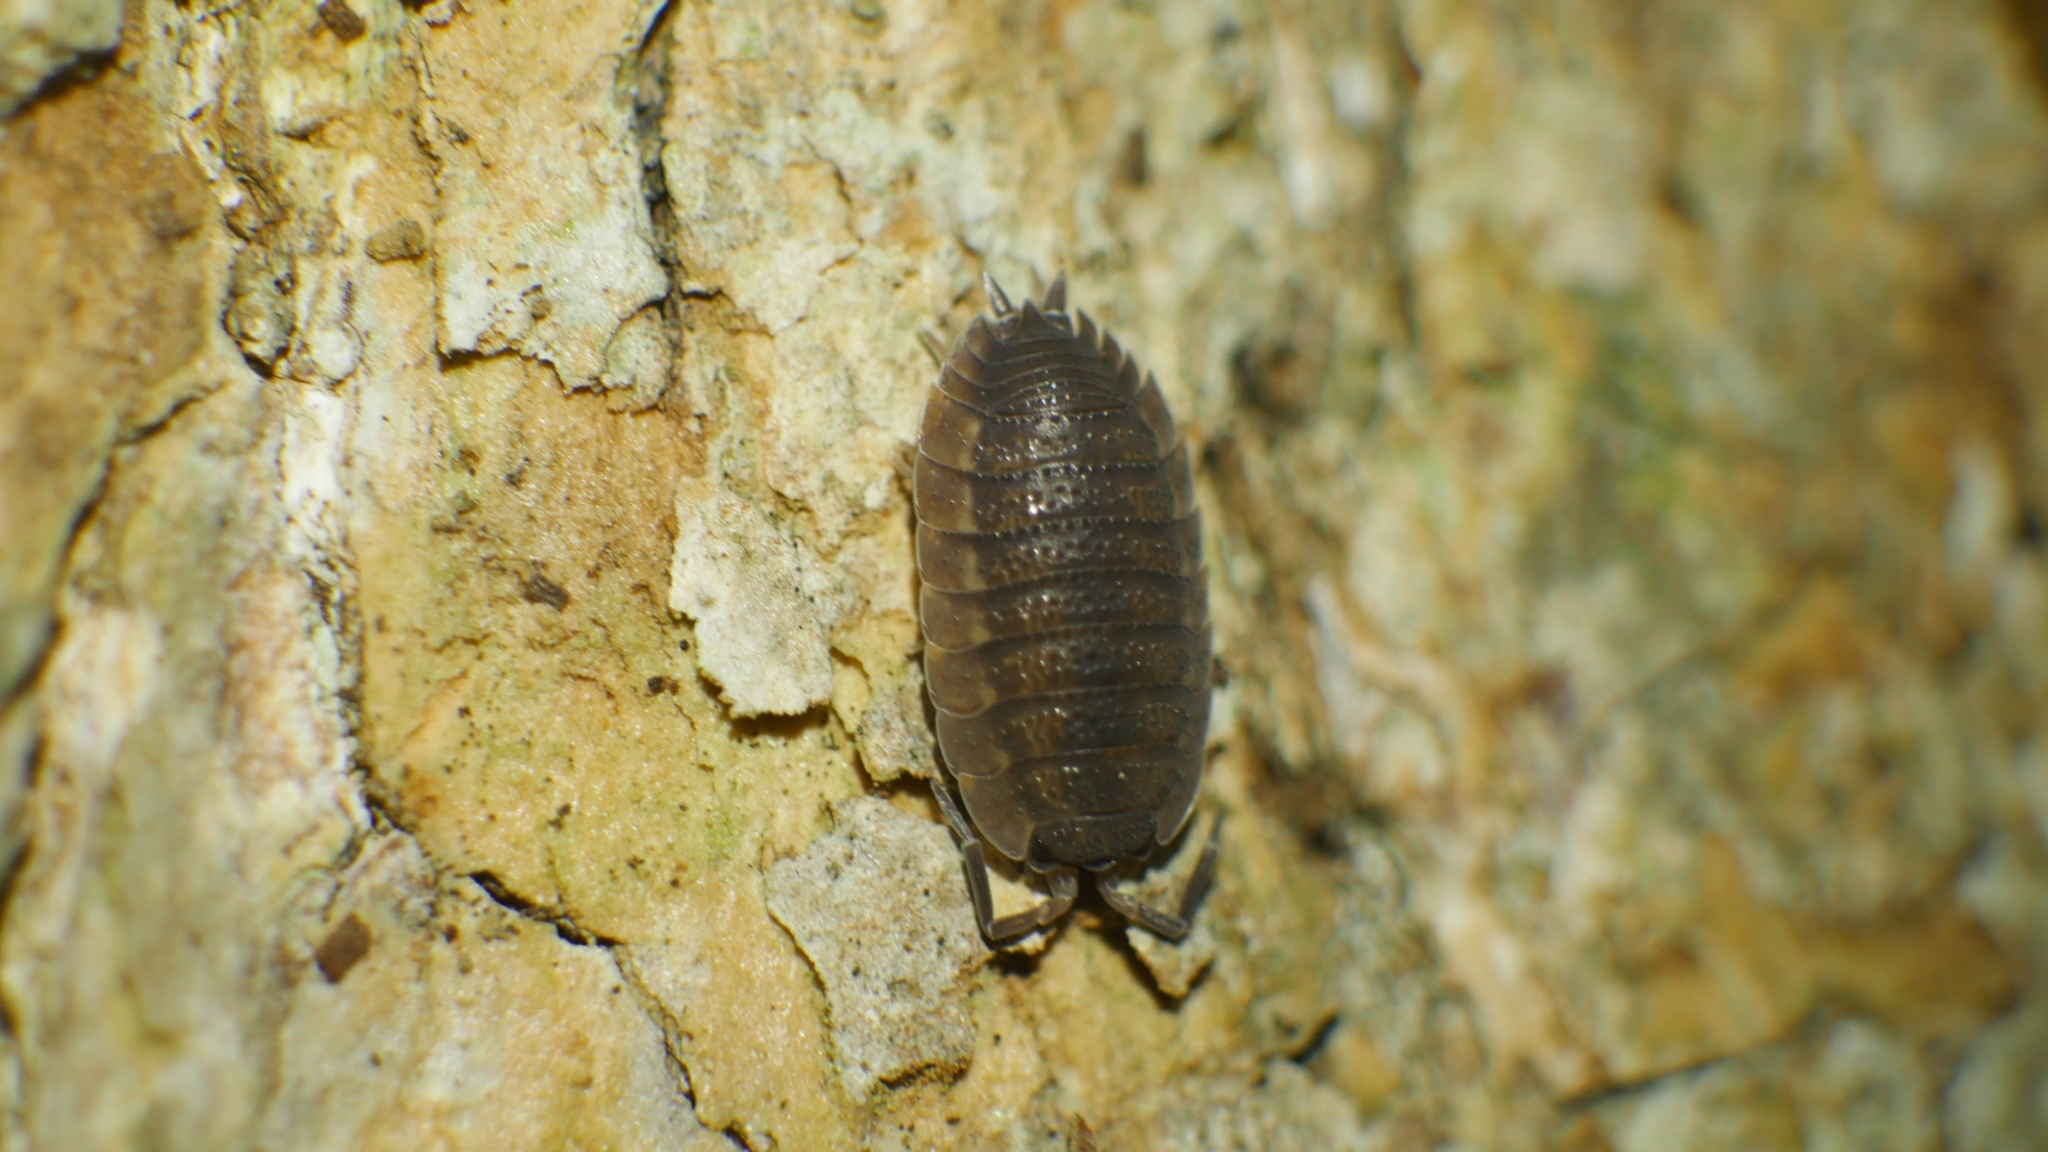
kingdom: Animalia
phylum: Arthropoda
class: Malacostraca
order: Isopoda
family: Porcellionidae
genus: Porcellio
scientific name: Porcellio scaber
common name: Common rough woodlouse
